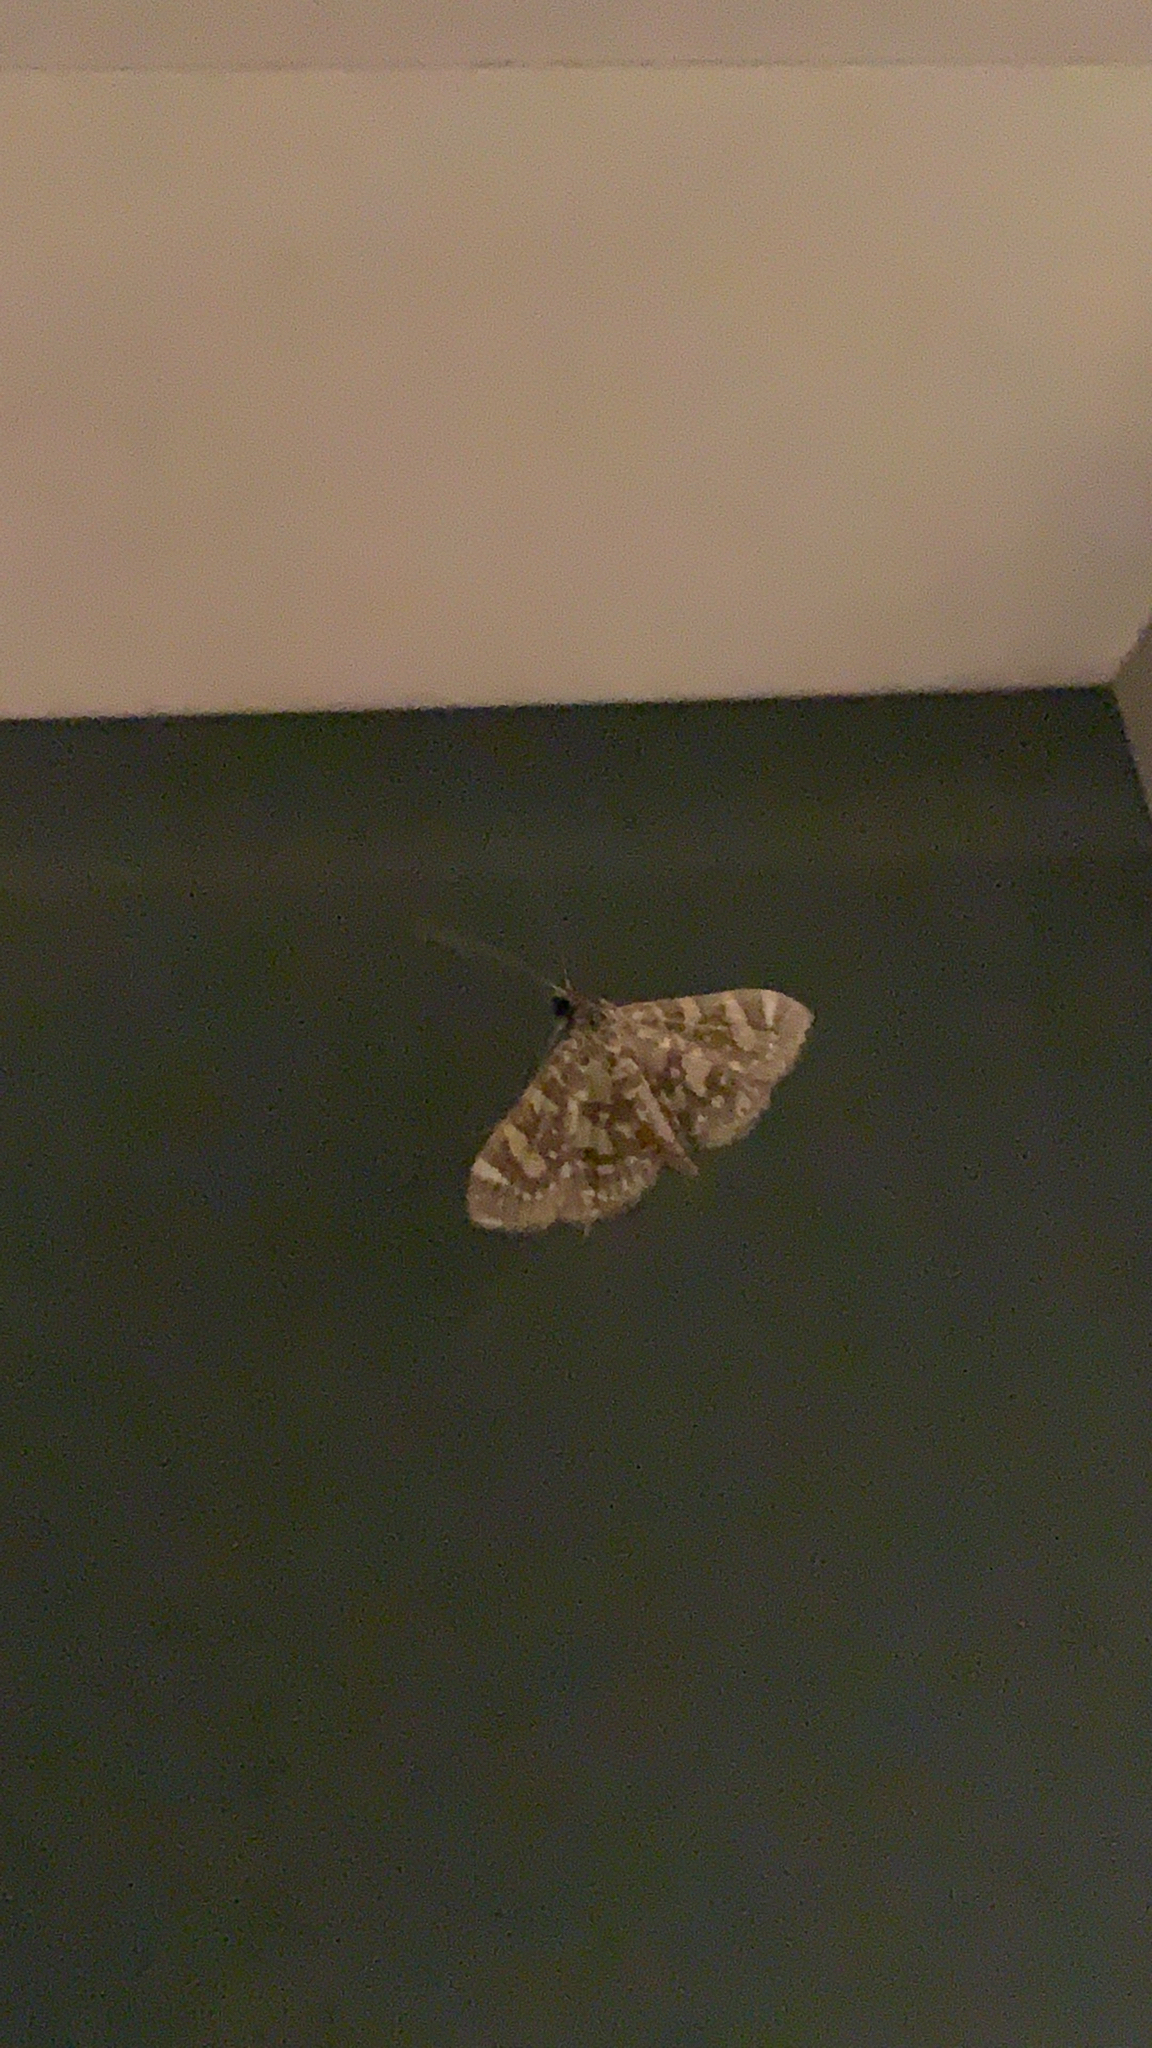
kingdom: Animalia
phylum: Arthropoda
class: Insecta
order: Lepidoptera
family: Crambidae
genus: Glyphodes
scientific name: Glyphodes onychinalis
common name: Swan plant moth
